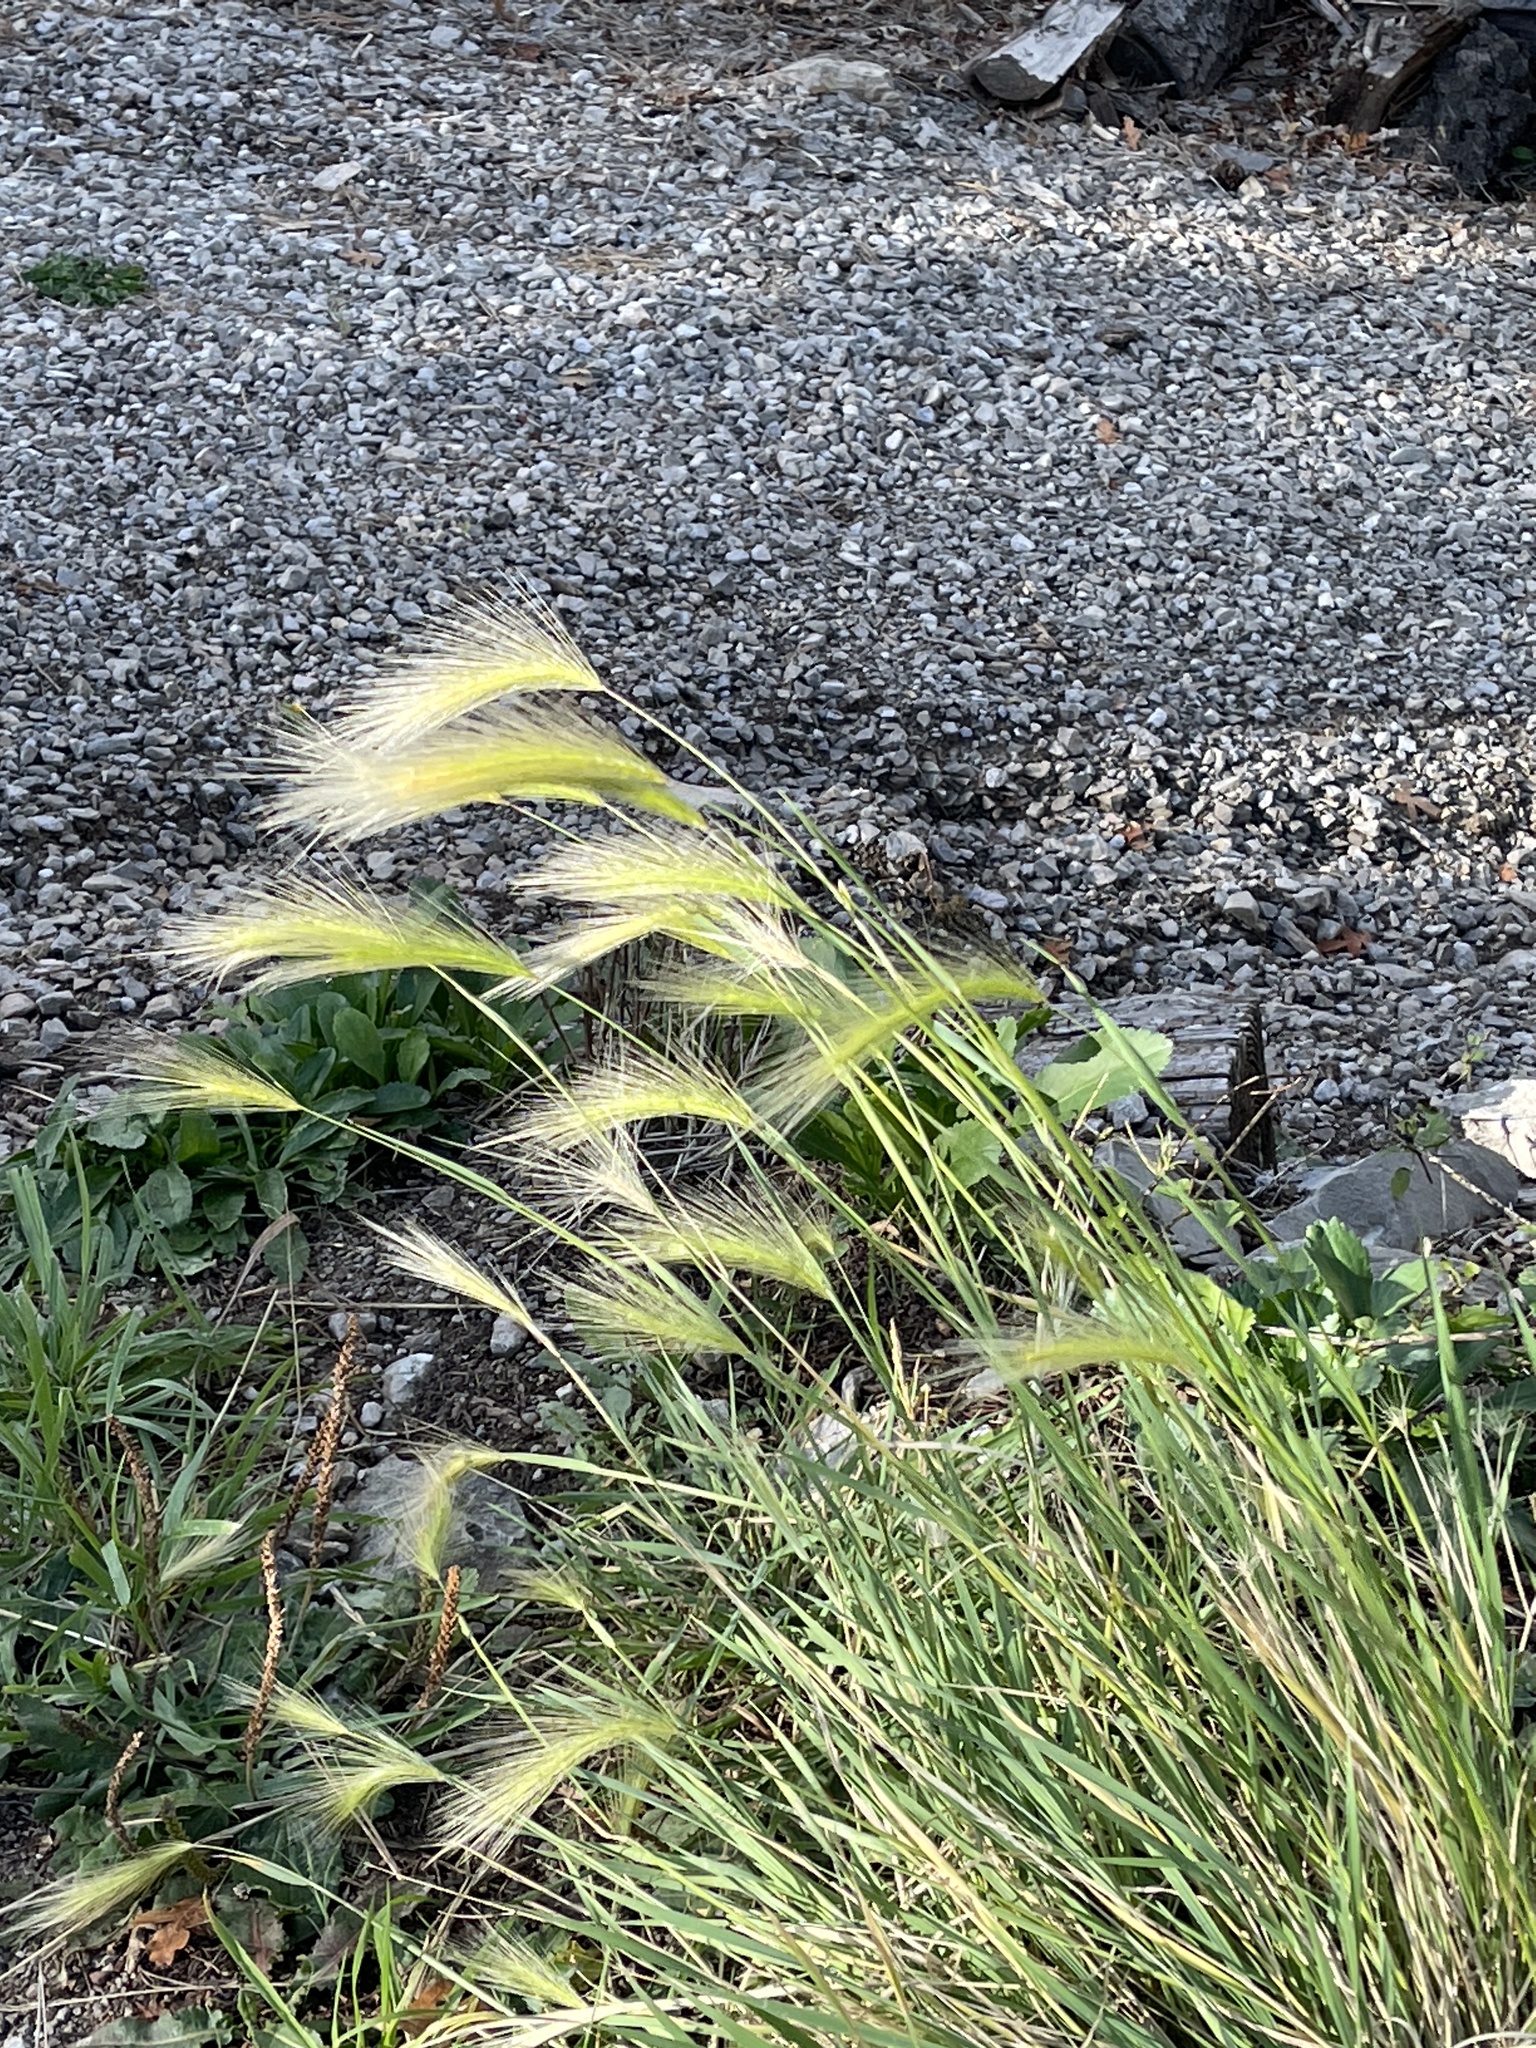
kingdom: Plantae
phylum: Tracheophyta
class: Liliopsida
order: Poales
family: Poaceae
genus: Hordeum
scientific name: Hordeum jubatum
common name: Foxtail barley
